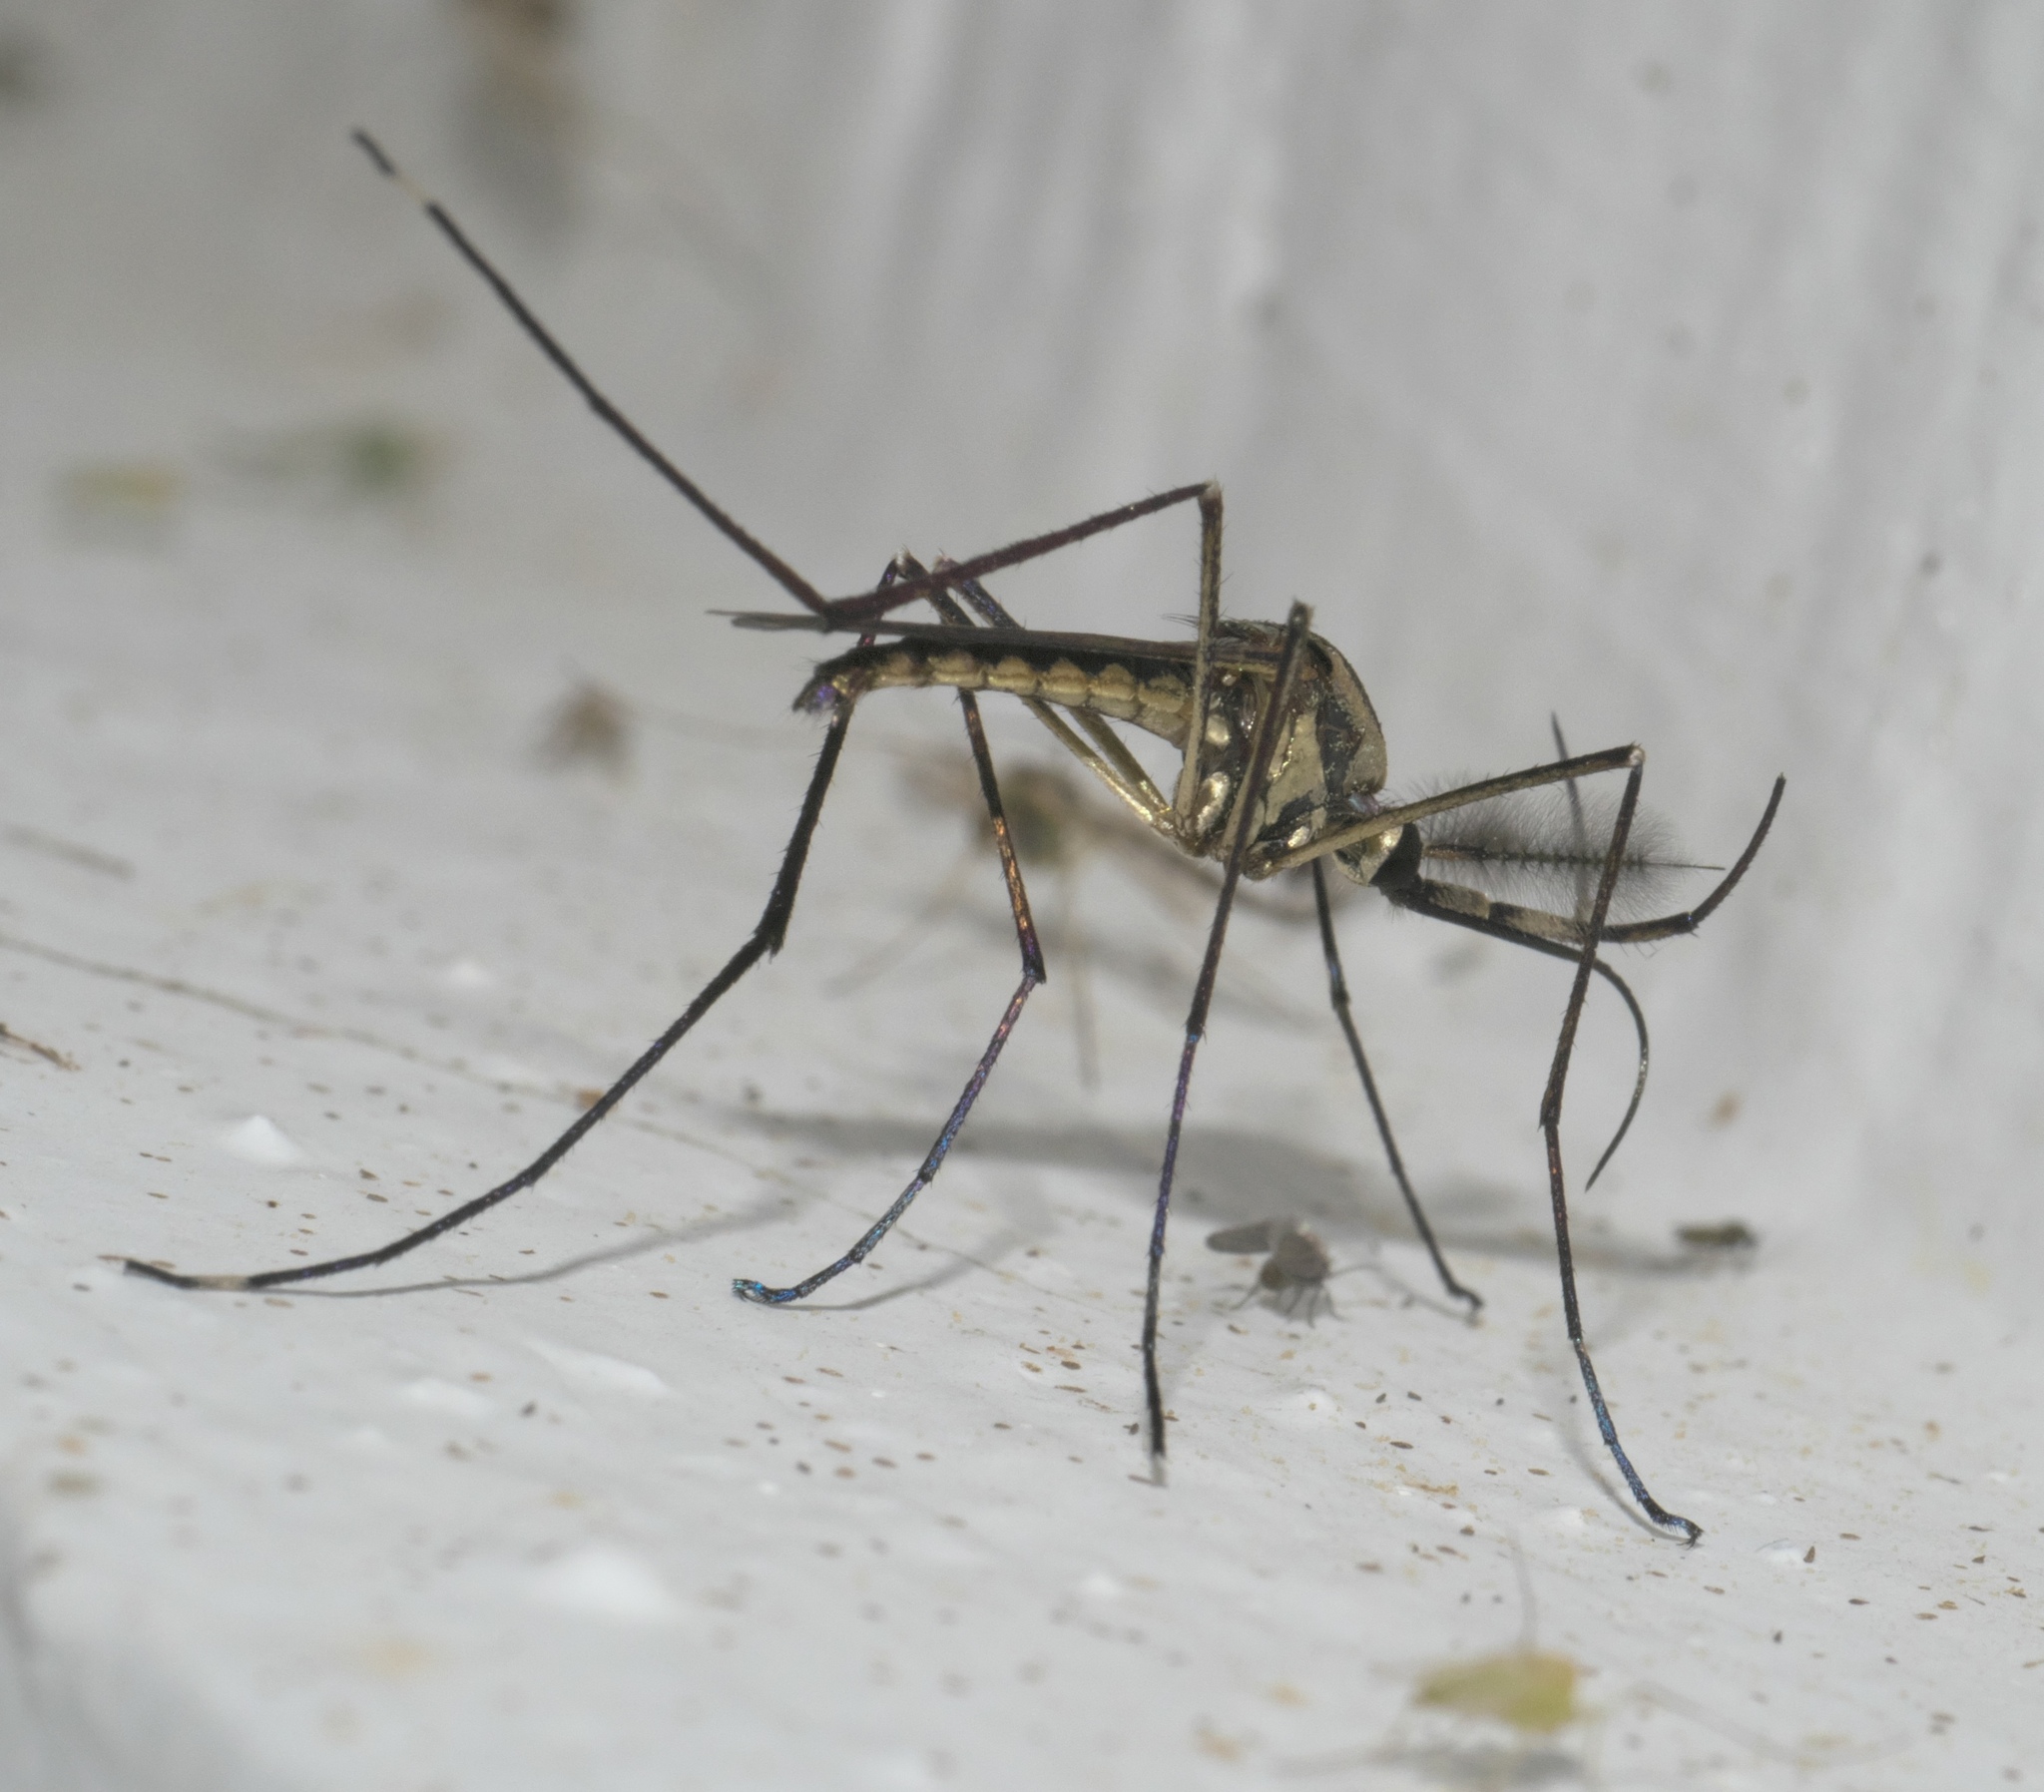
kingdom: Animalia
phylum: Arthropoda
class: Insecta
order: Diptera
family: Culicidae
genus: Toxorhynchites
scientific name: Toxorhynchites rutilus
